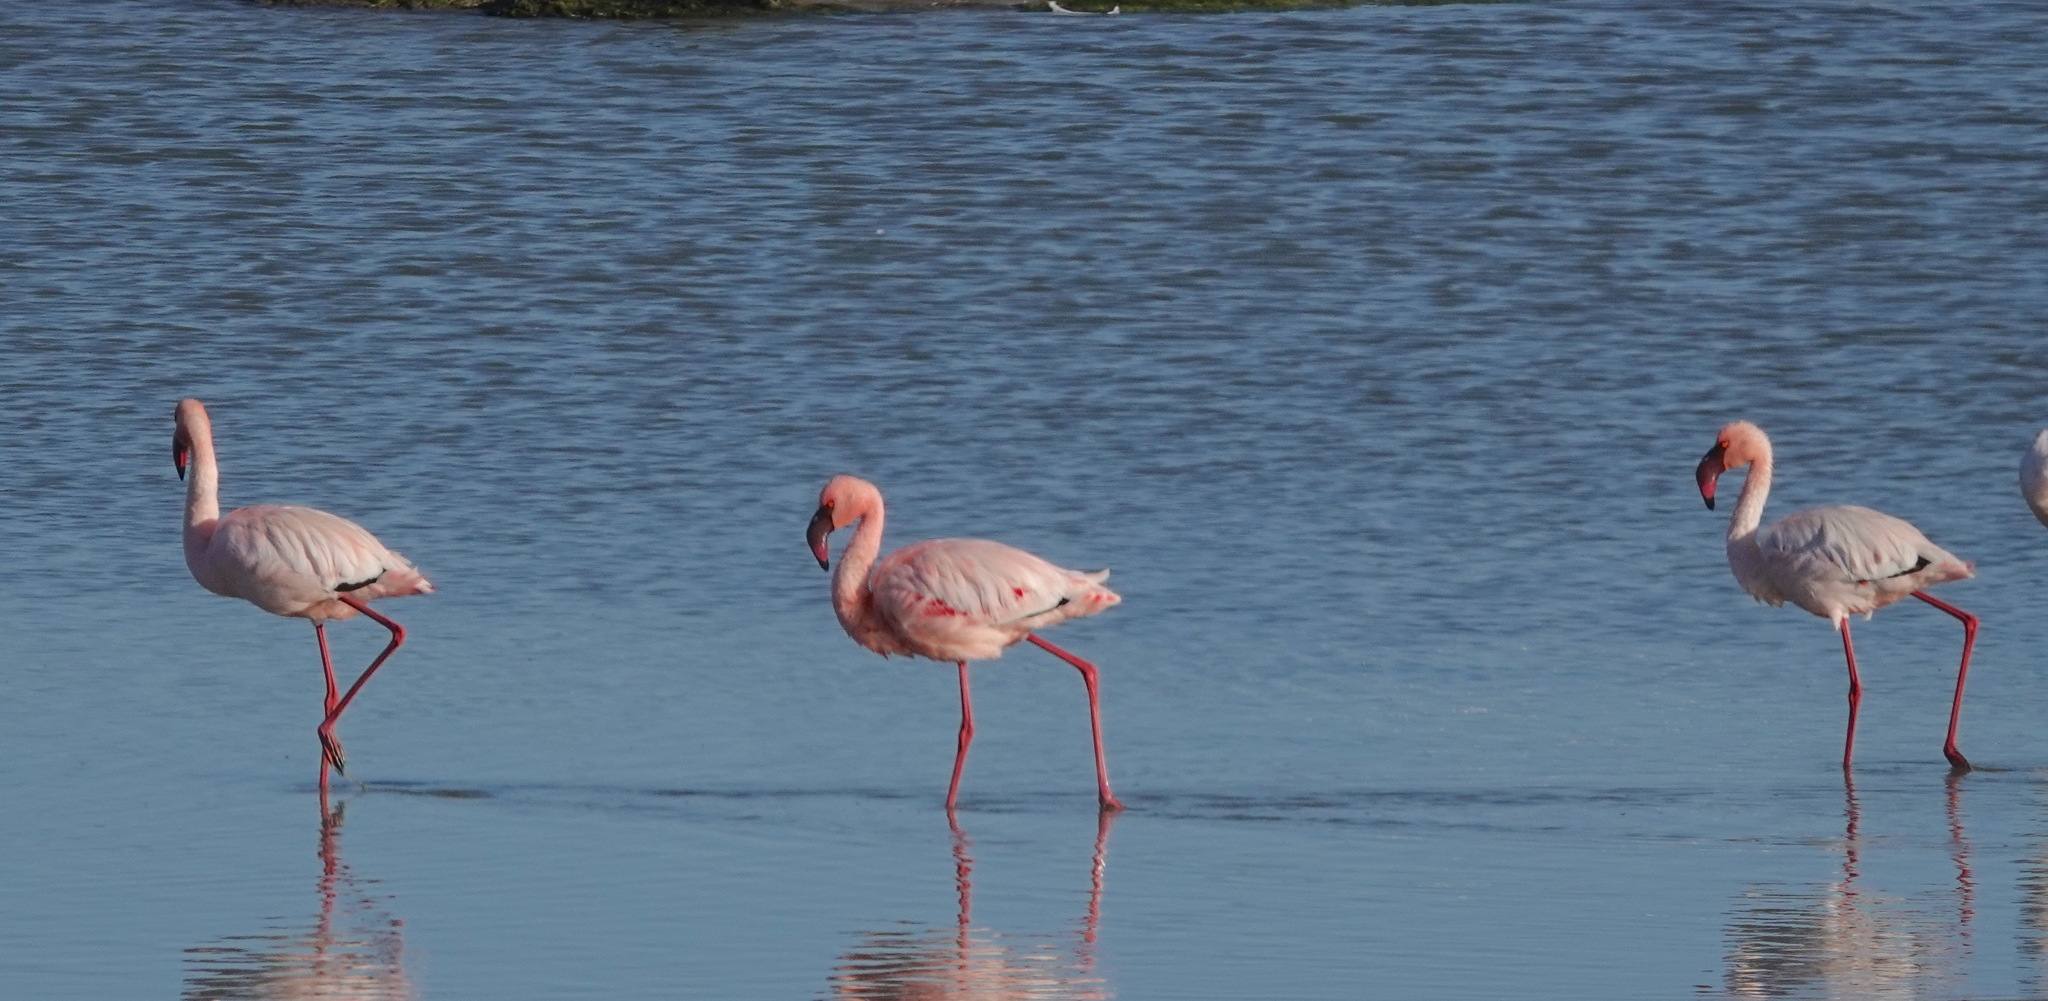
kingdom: Animalia
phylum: Chordata
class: Aves
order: Phoenicopteriformes
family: Phoenicopteridae
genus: Phoeniconaias
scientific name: Phoeniconaias minor
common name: Lesser flamingo
